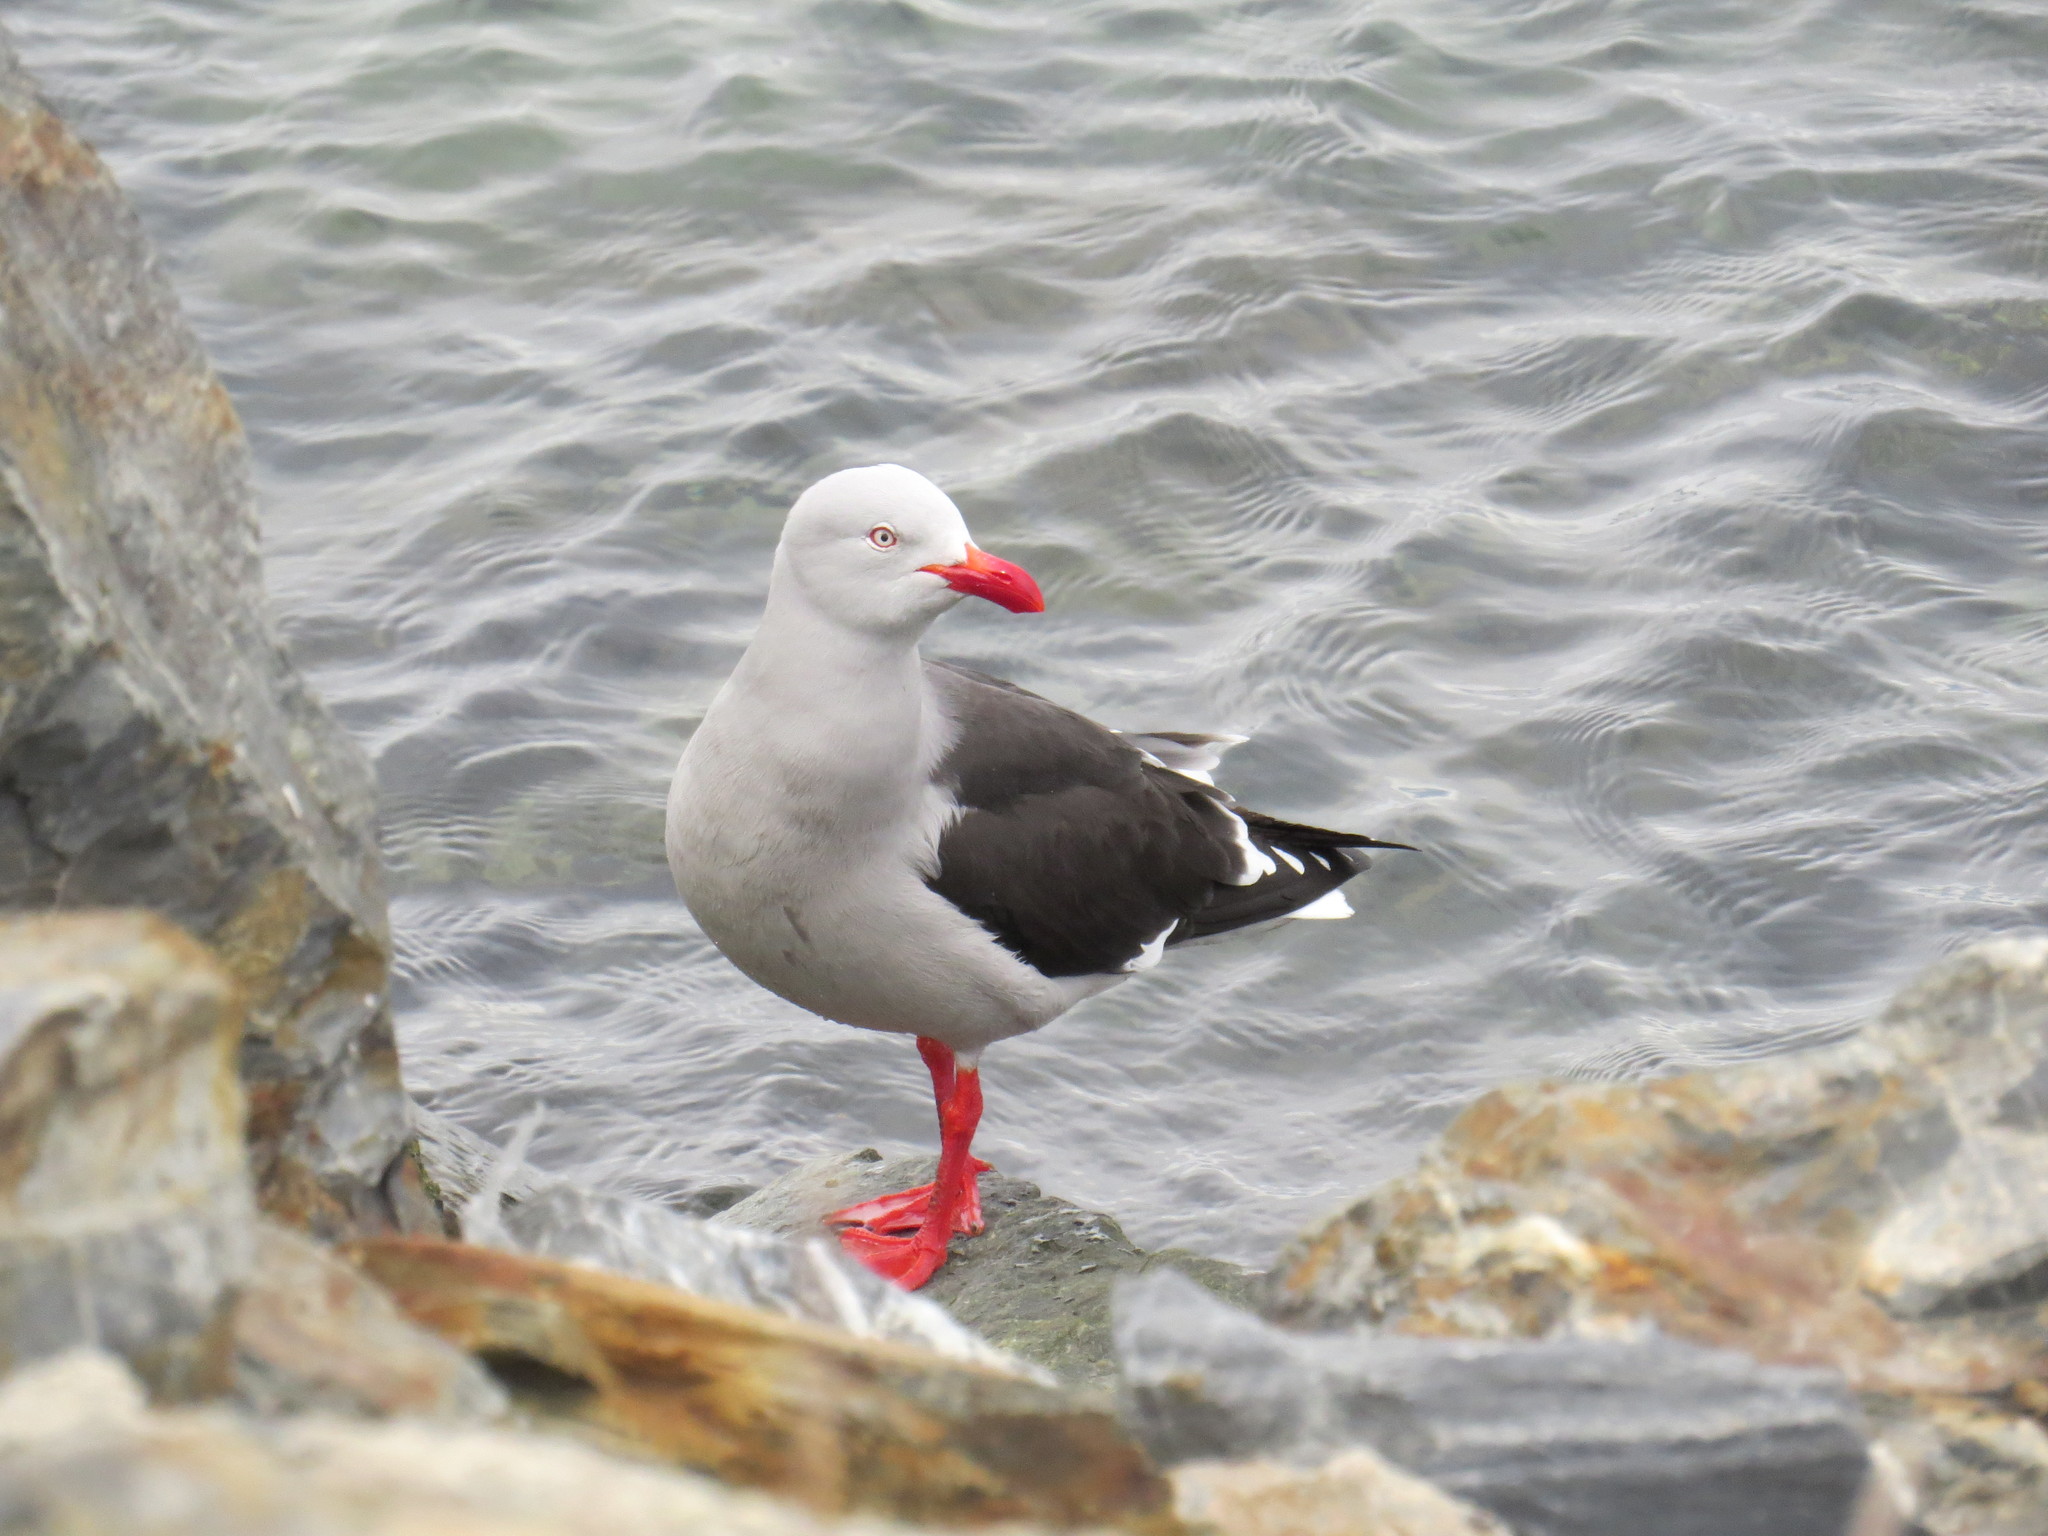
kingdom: Animalia
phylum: Chordata
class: Aves
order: Charadriiformes
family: Laridae
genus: Leucophaeus
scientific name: Leucophaeus scoresbii
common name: Dolphin gull
